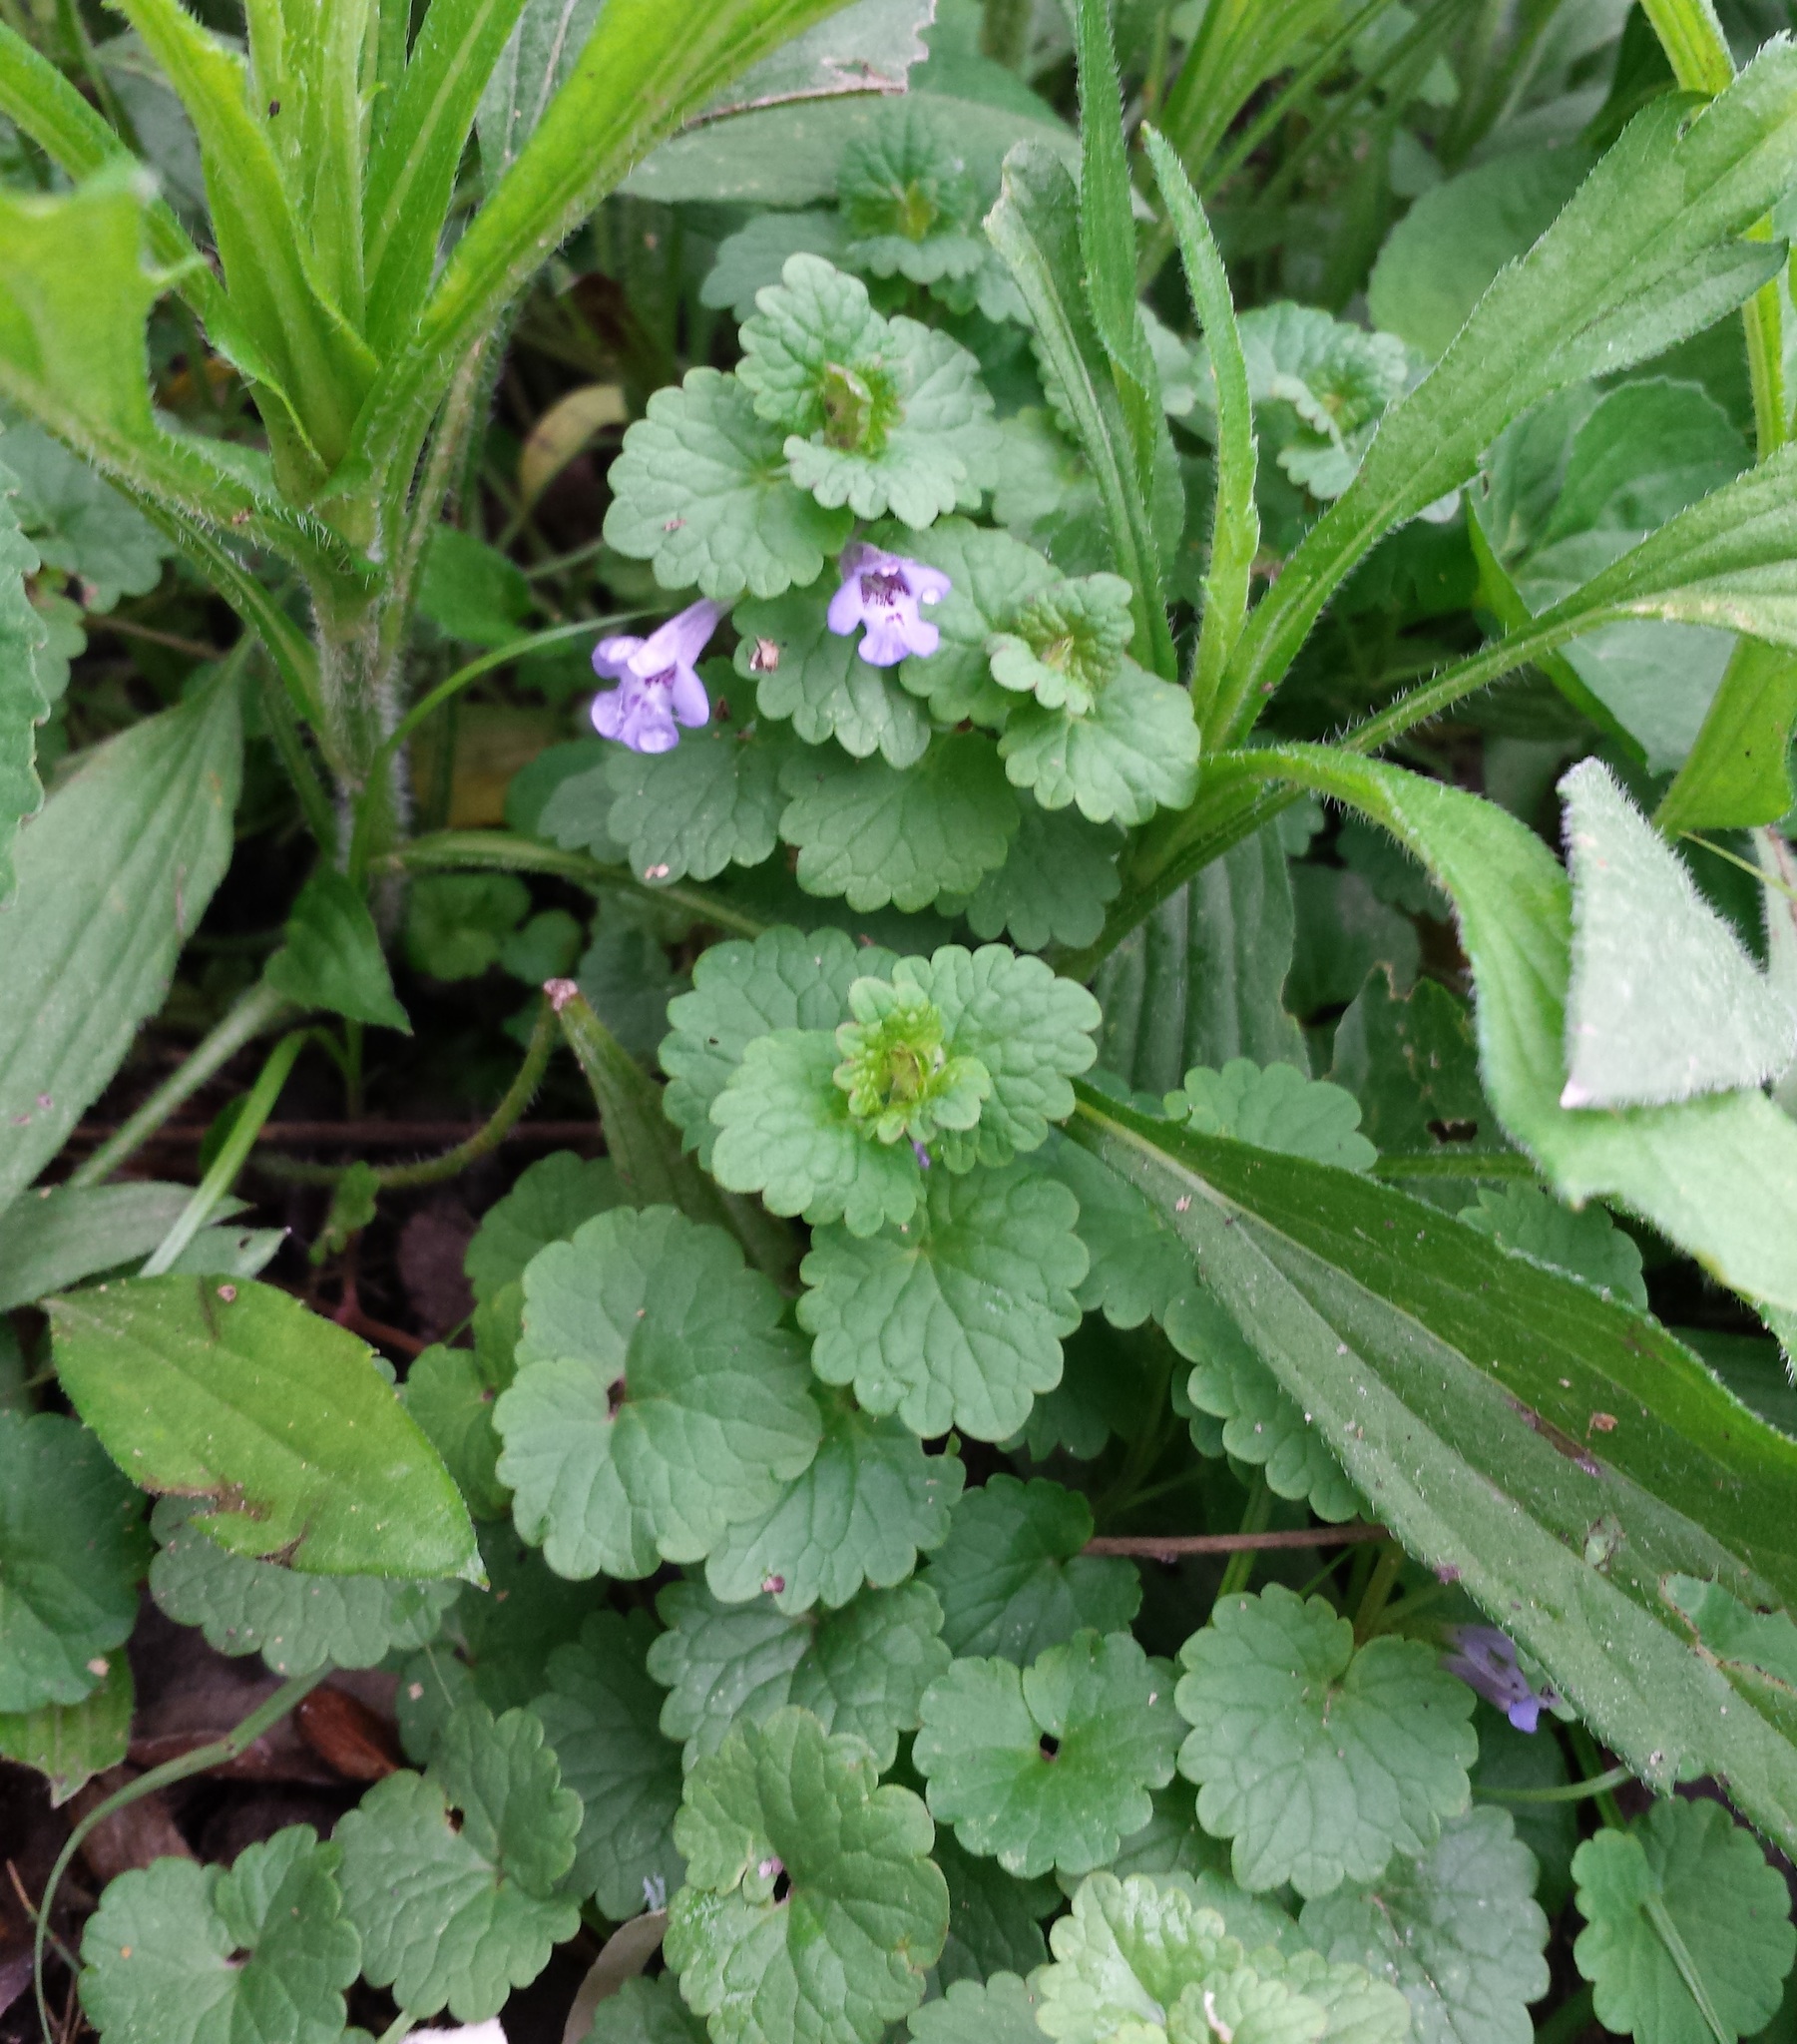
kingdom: Plantae
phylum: Tracheophyta
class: Magnoliopsida
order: Lamiales
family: Lamiaceae
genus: Glechoma
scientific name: Glechoma hederacea
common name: Ground ivy
